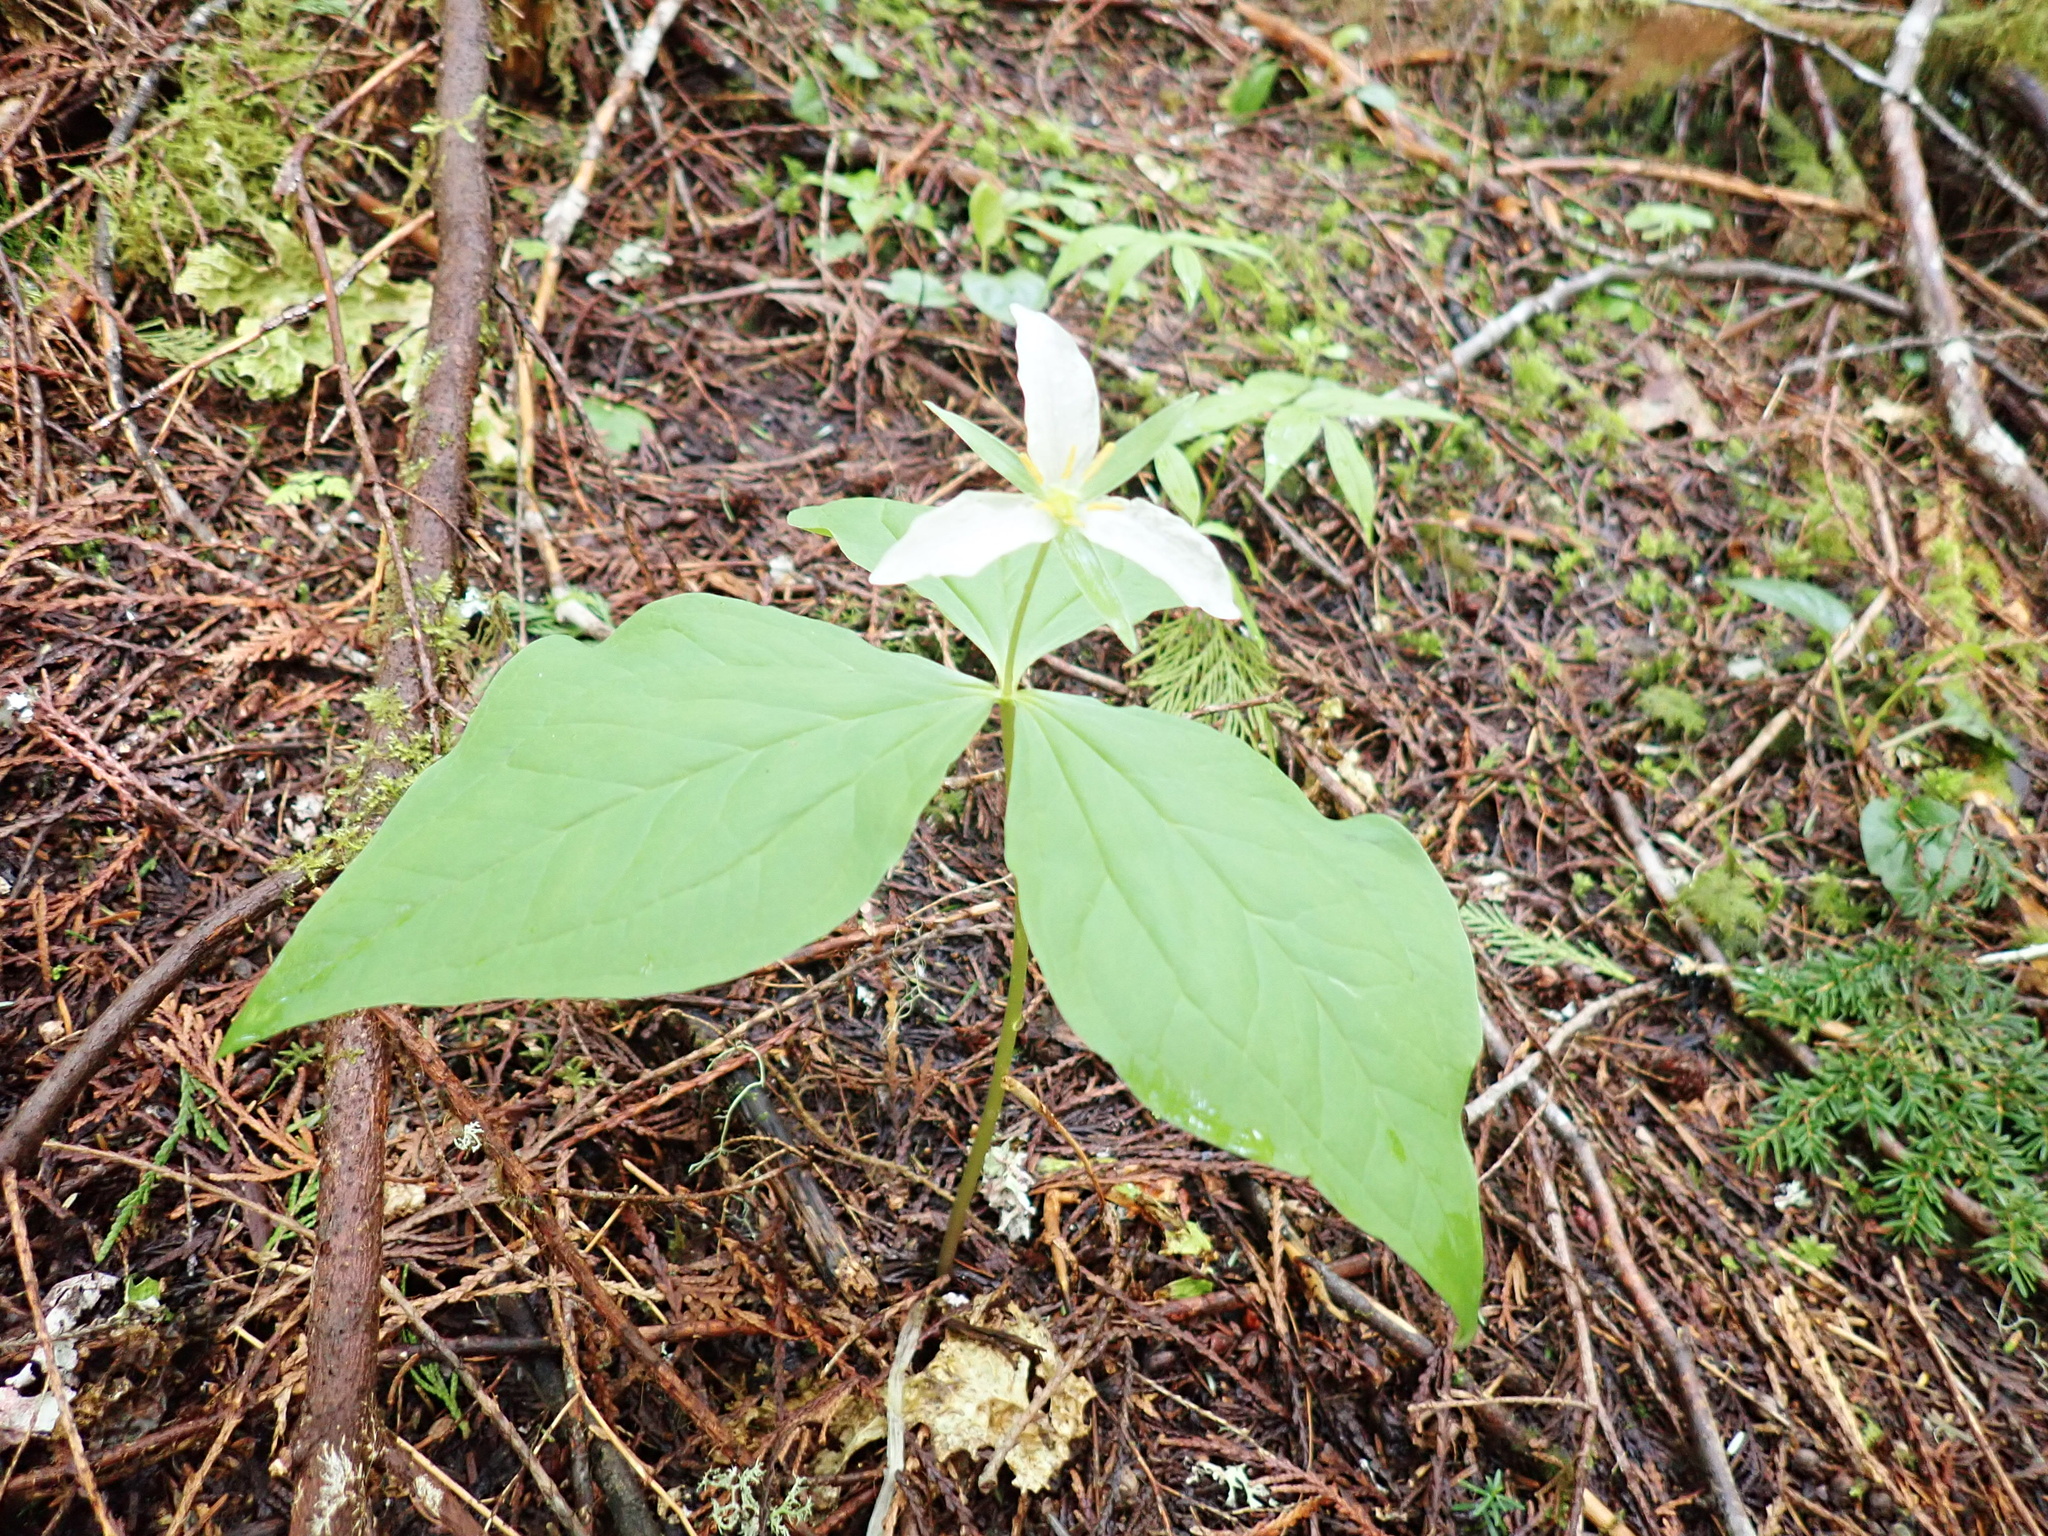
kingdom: Plantae
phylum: Tracheophyta
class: Liliopsida
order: Liliales
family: Melanthiaceae
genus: Trillium
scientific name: Trillium ovatum
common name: Pacific trillium
